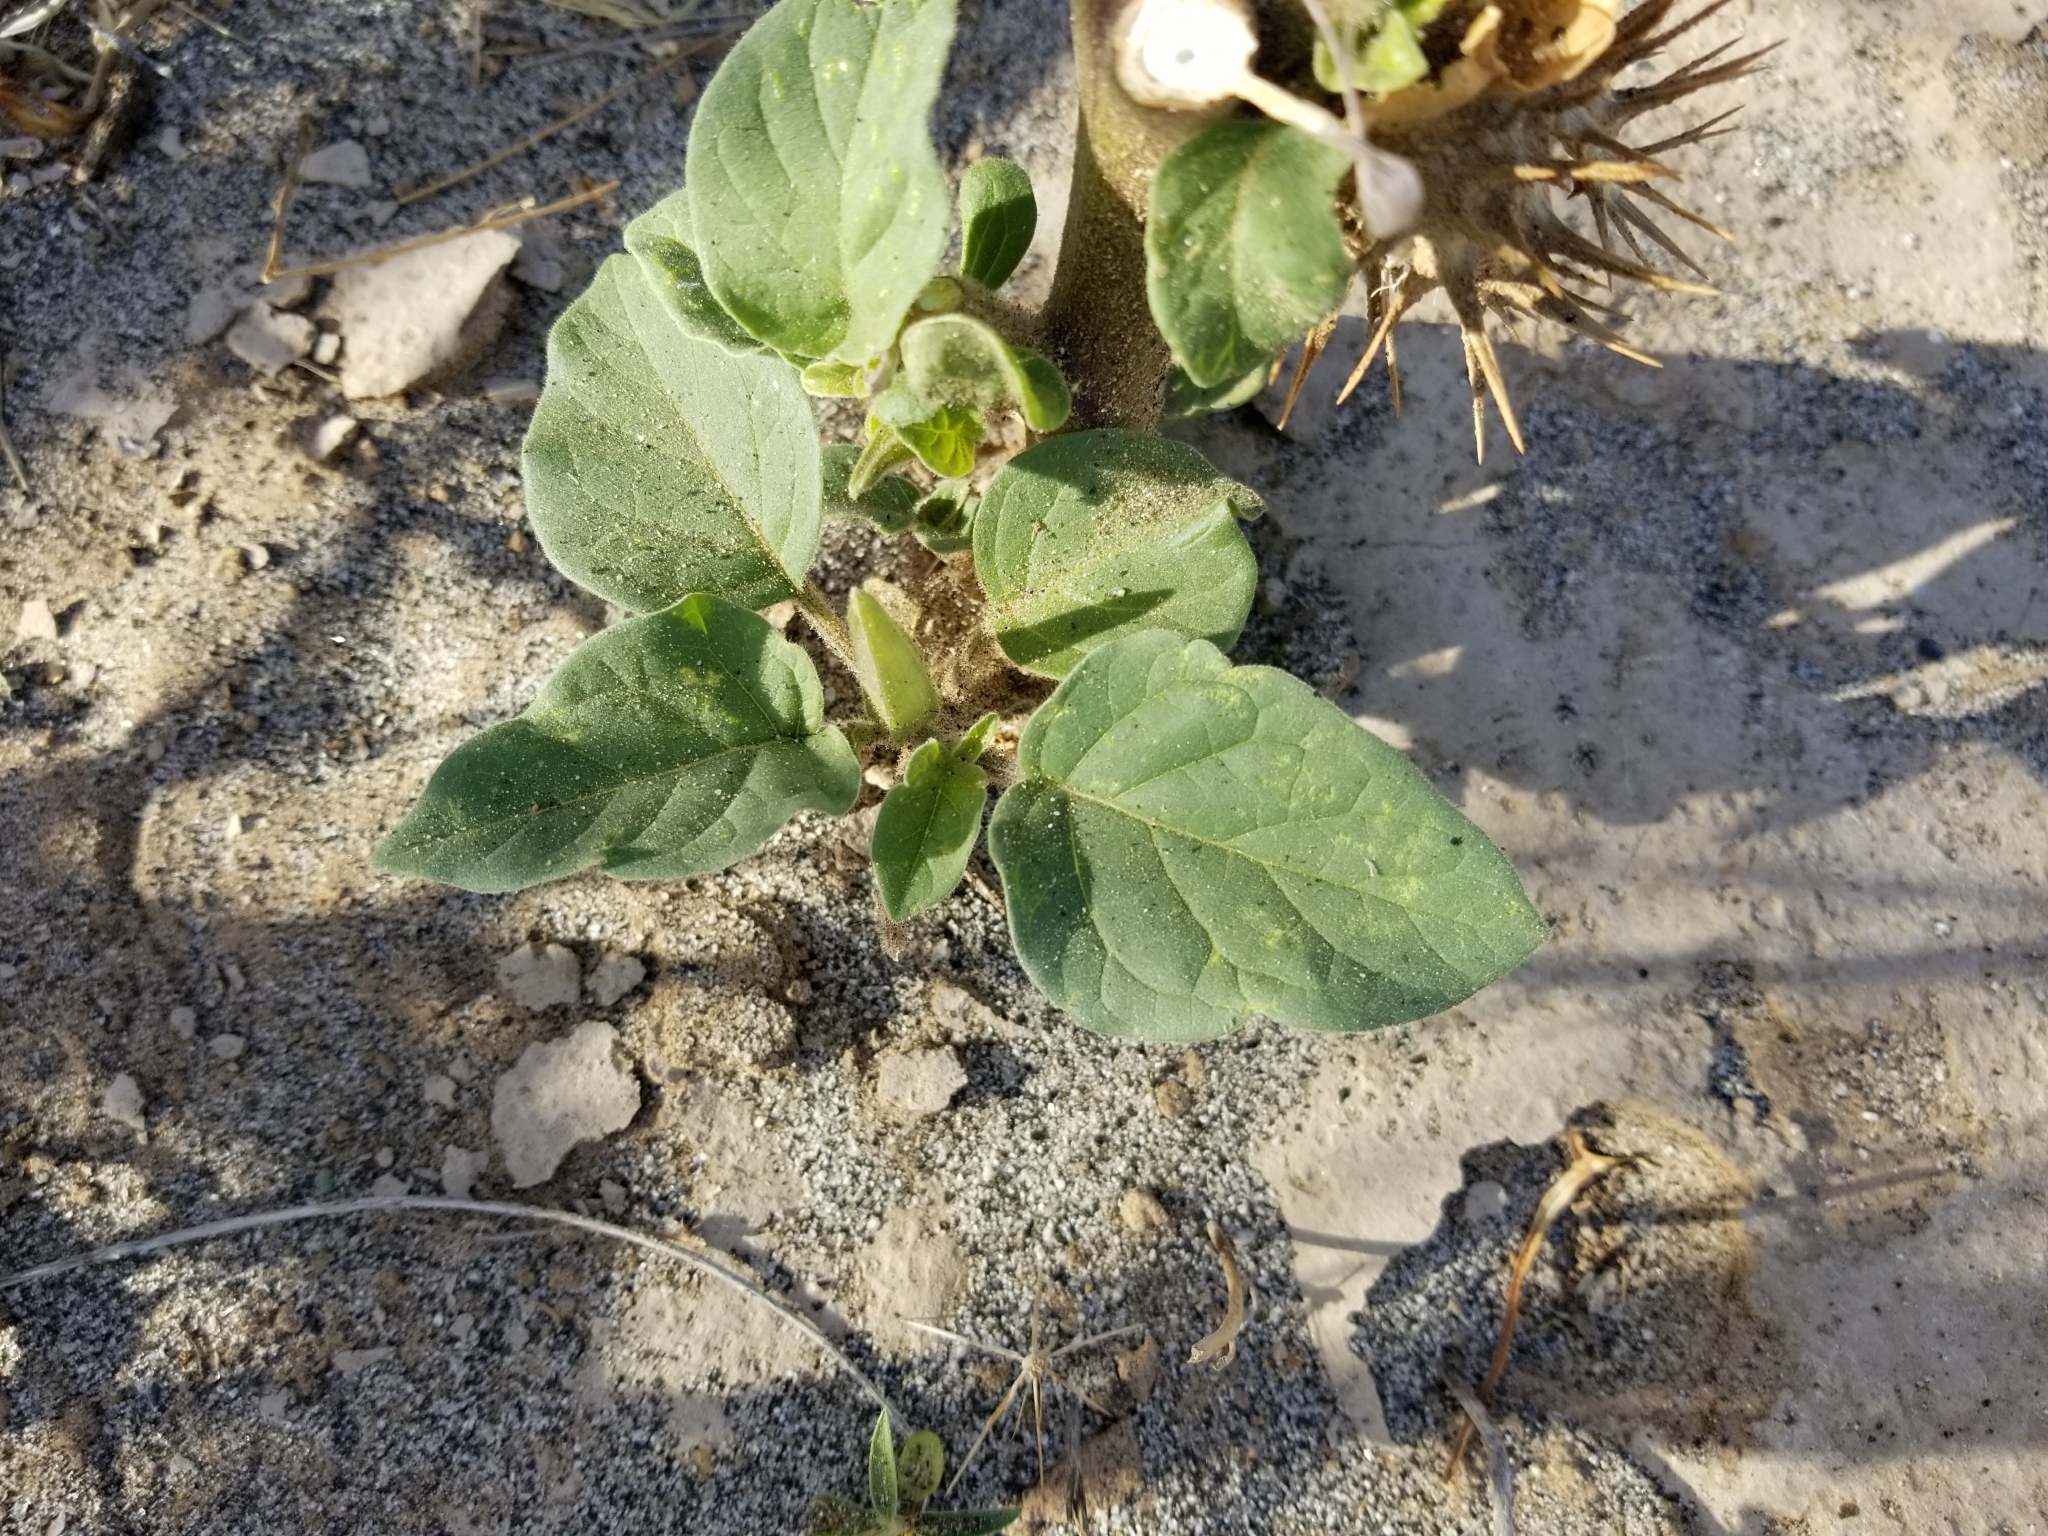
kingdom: Plantae
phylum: Tracheophyta
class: Magnoliopsida
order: Solanales
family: Solanaceae
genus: Datura
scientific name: Datura discolor
